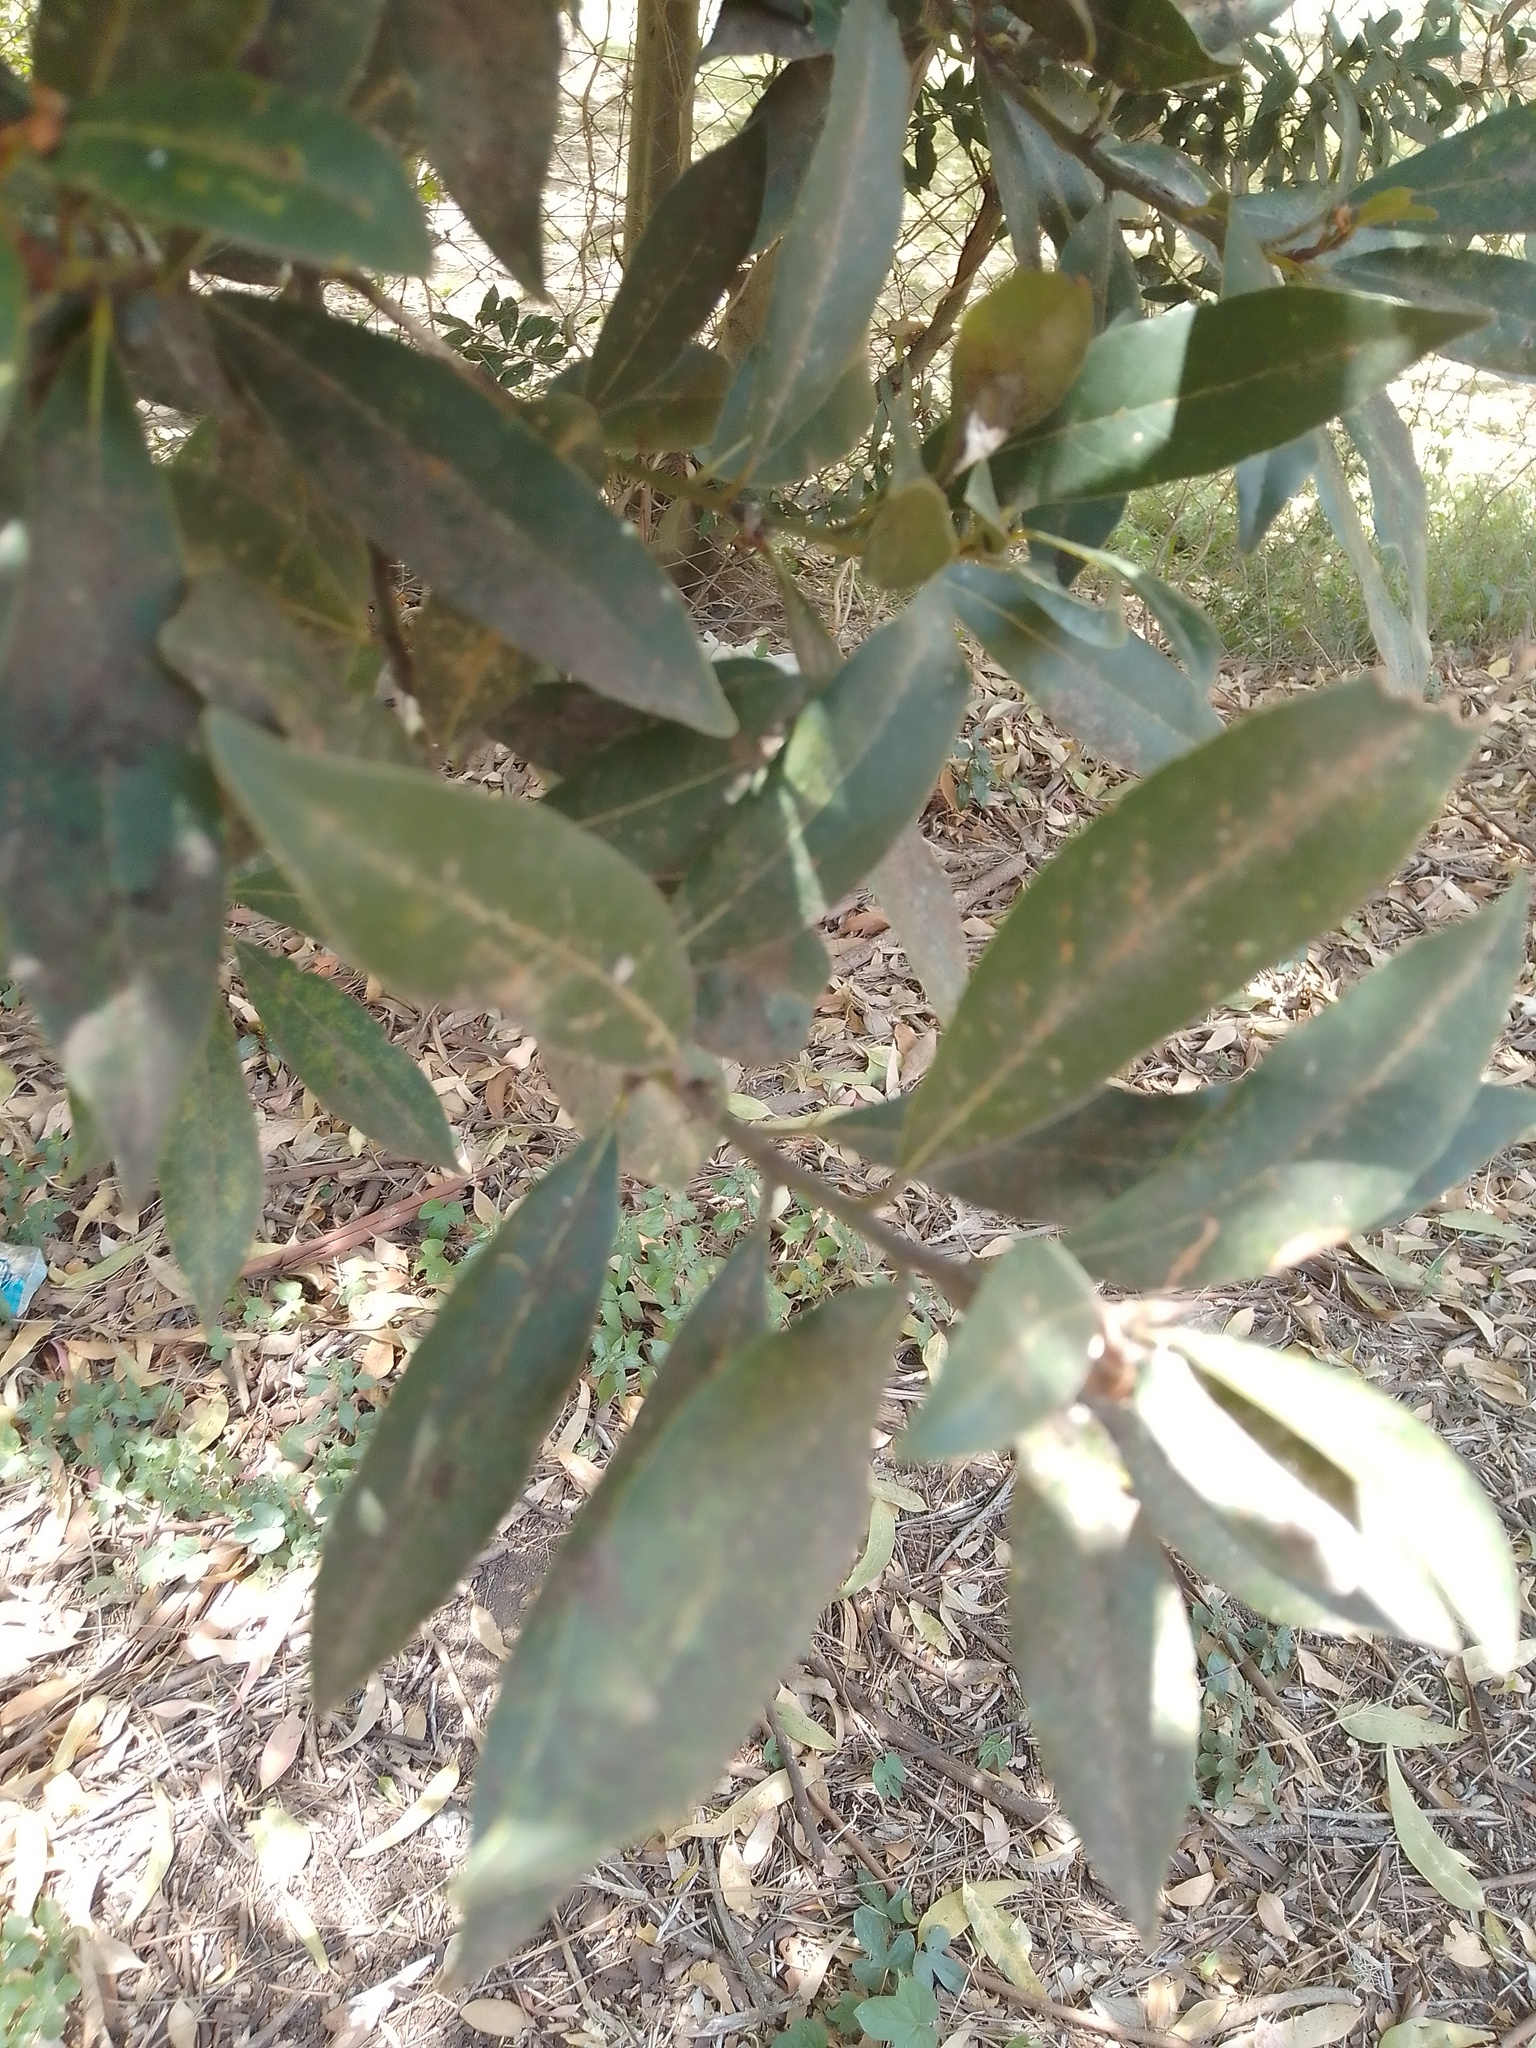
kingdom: Plantae
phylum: Tracheophyta
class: Magnoliopsida
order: Laurales
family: Lauraceae
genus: Laurus
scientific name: Laurus nobilis
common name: Bay
